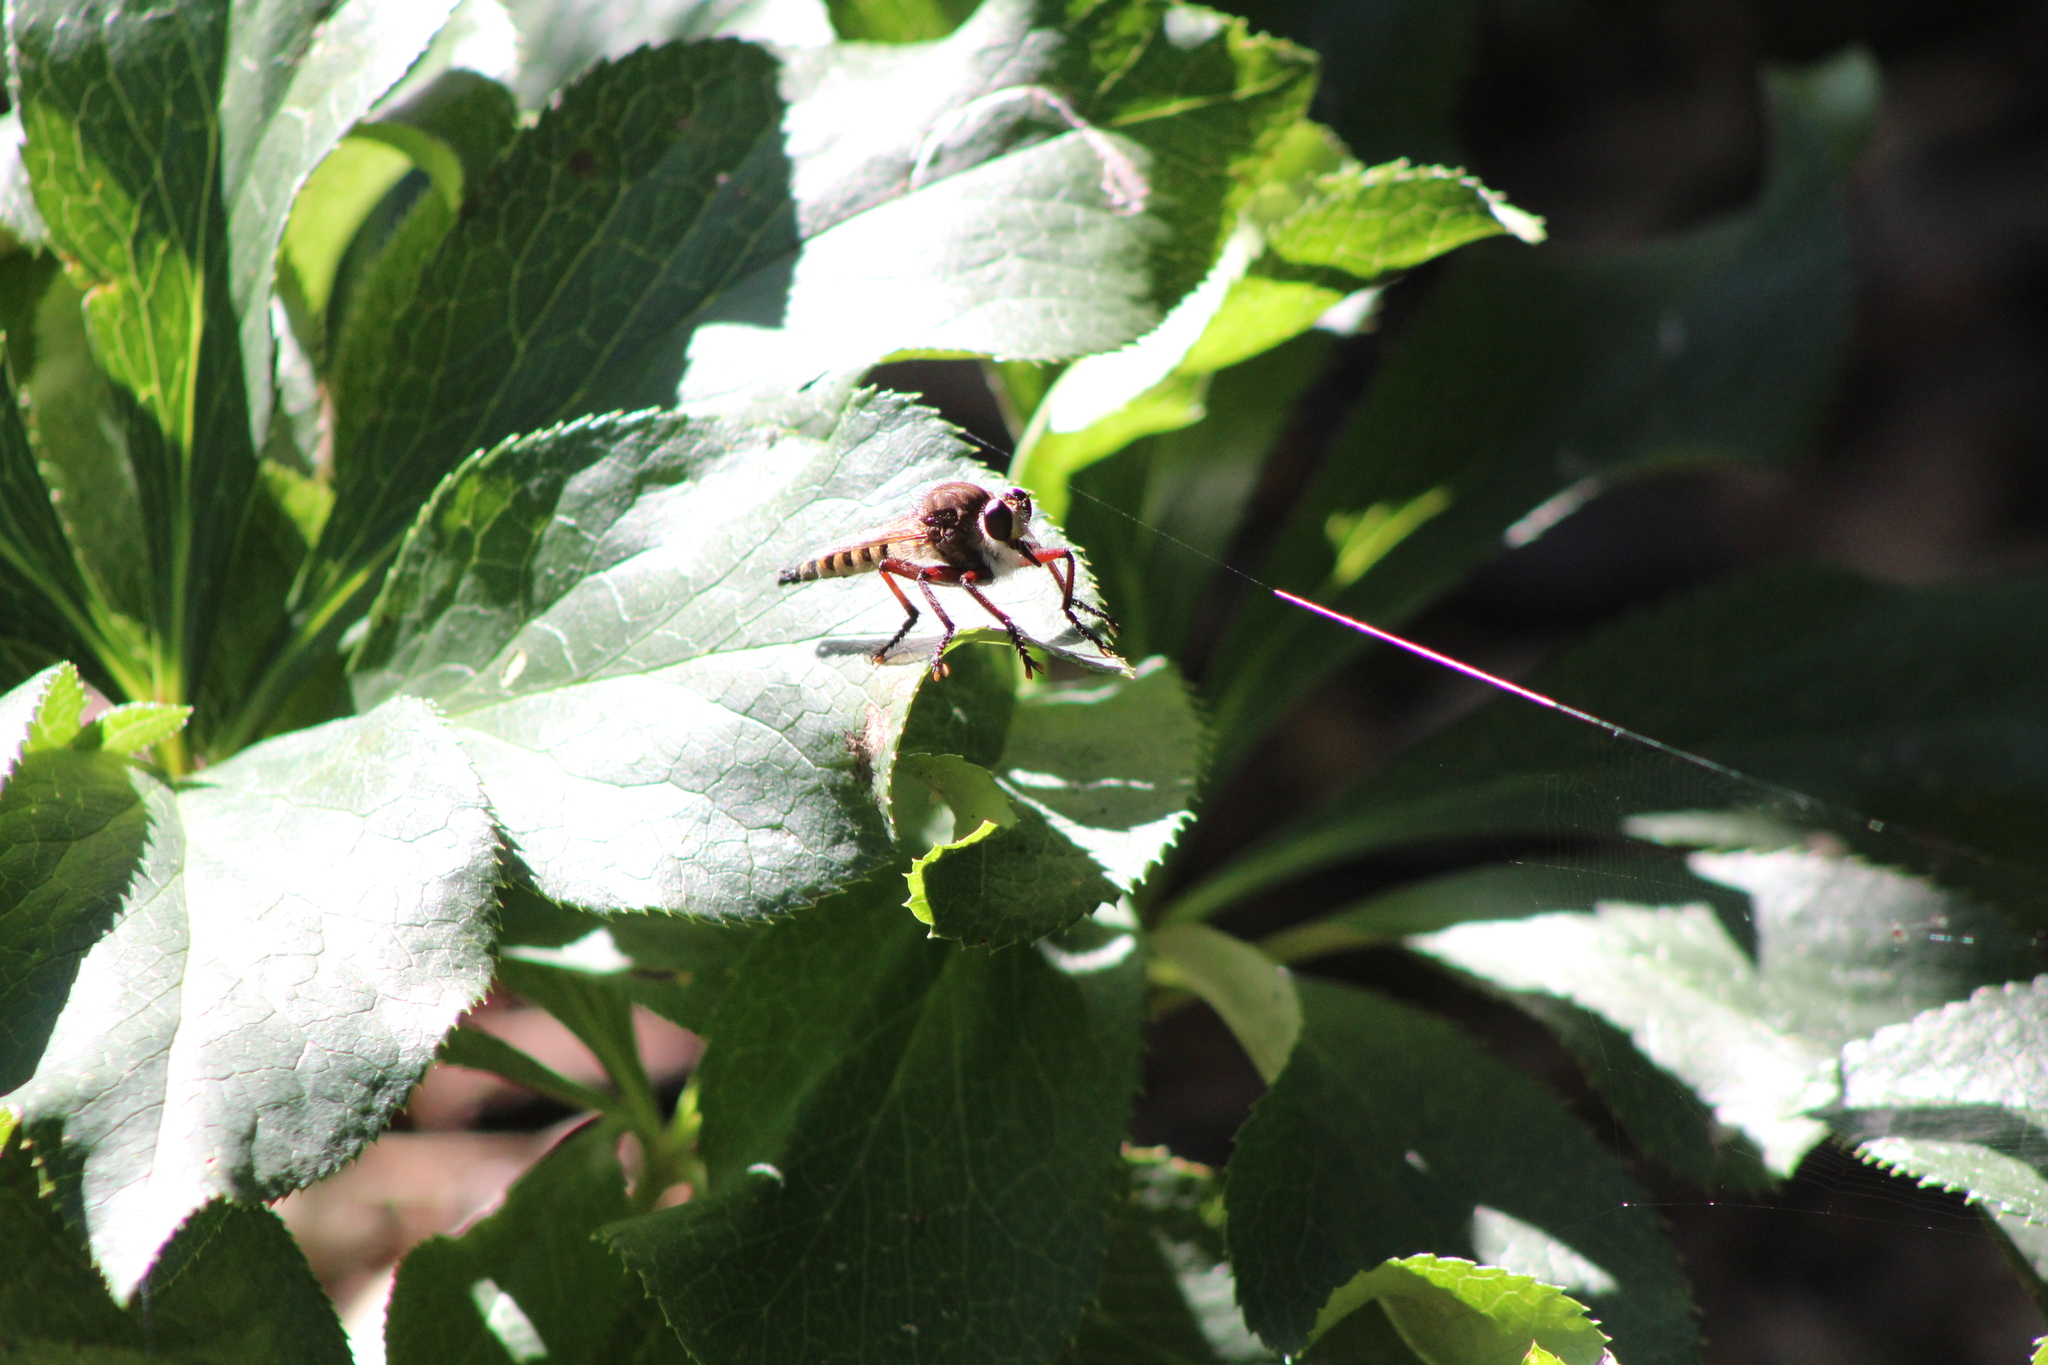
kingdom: Animalia
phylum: Arthropoda
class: Insecta
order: Diptera
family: Asilidae
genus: Promachus
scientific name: Promachus hinei
